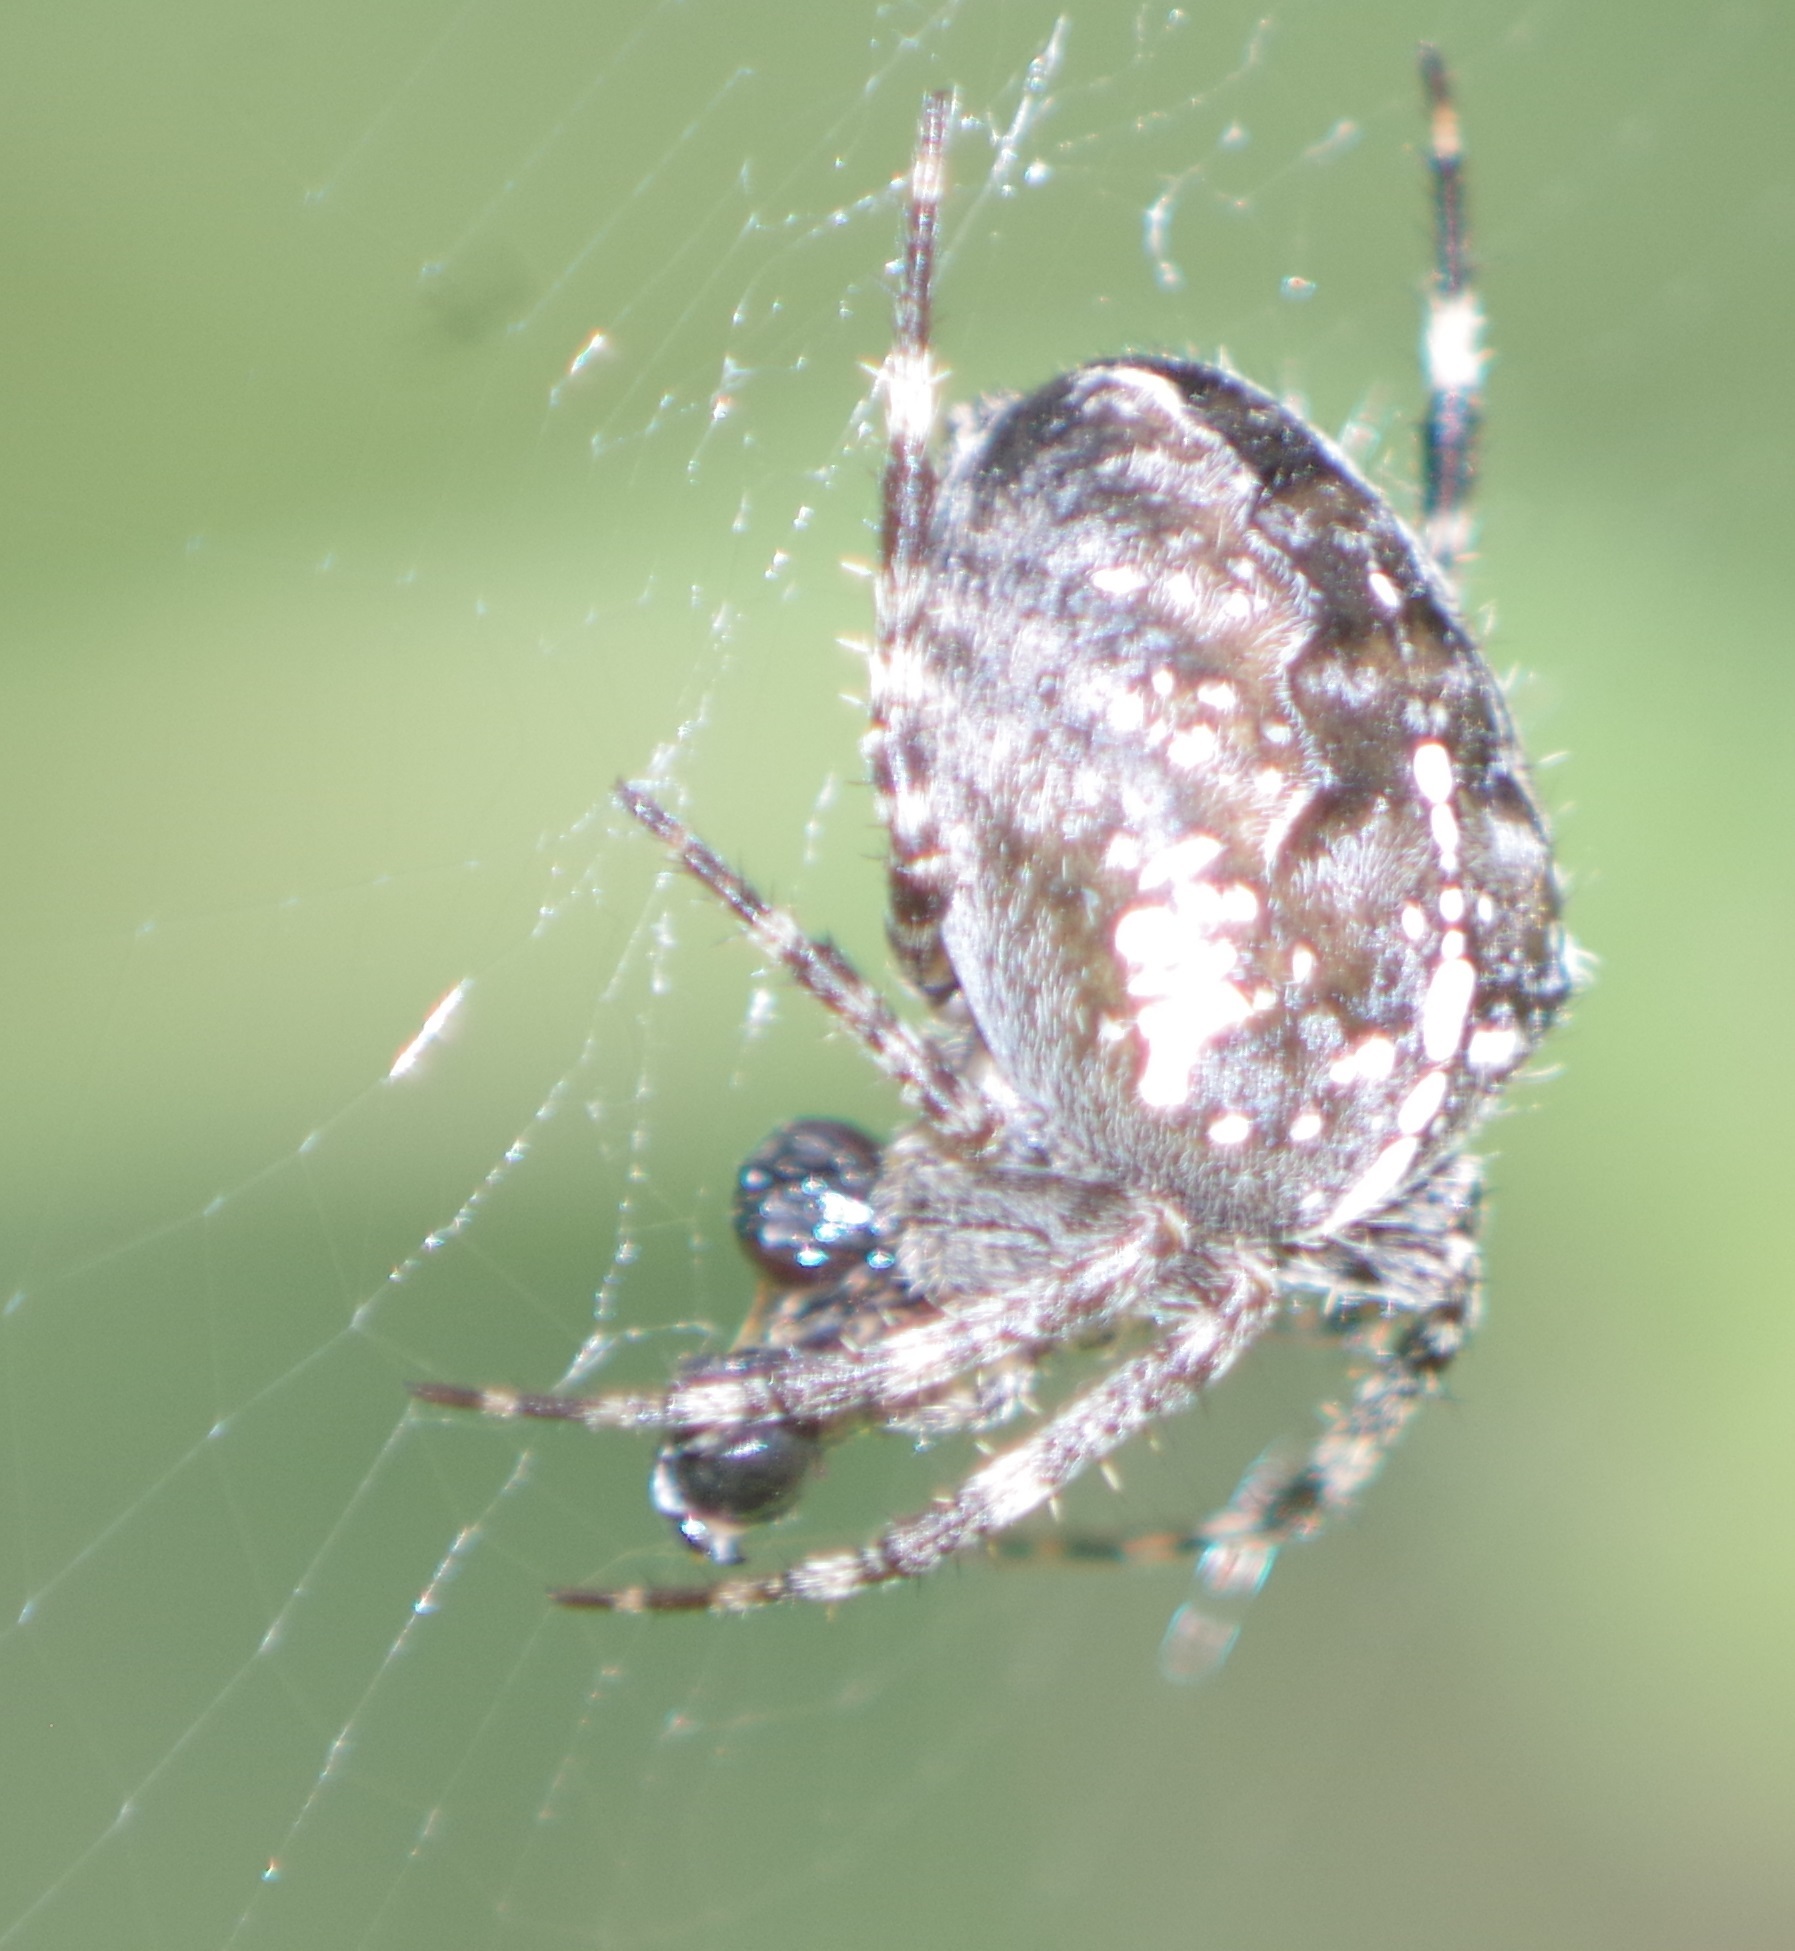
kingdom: Animalia
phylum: Arthropoda
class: Arachnida
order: Araneae
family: Araneidae
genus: Araneus
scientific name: Araneus diadematus
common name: Cross orbweaver
